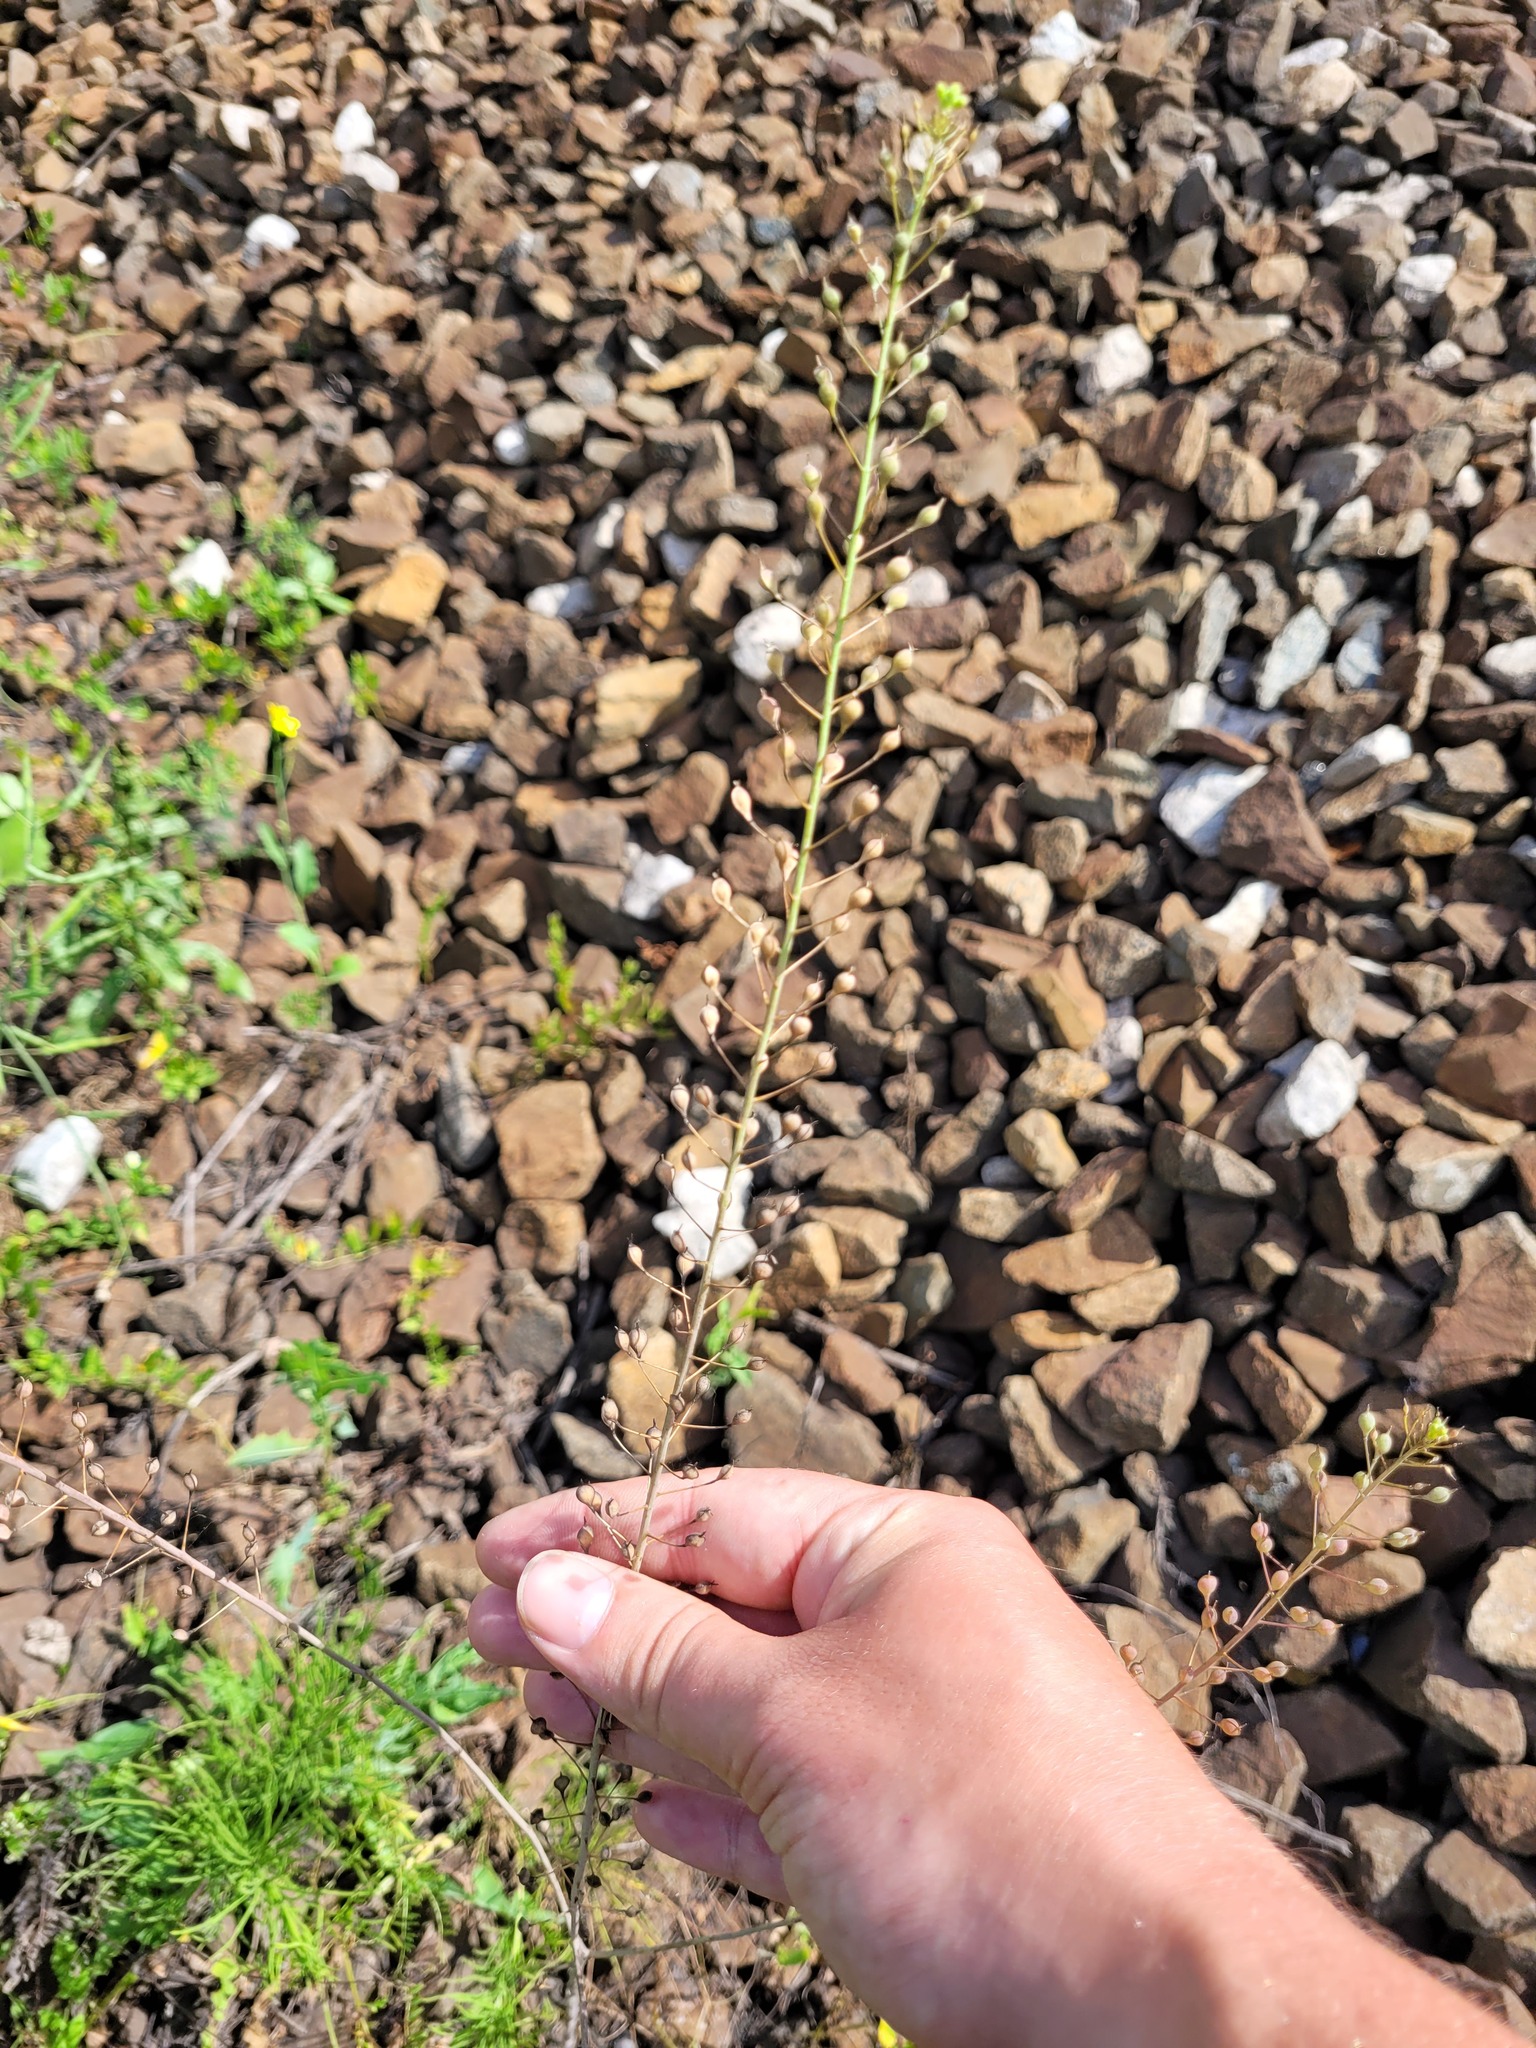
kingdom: Plantae
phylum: Tracheophyta
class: Magnoliopsida
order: Brassicales
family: Brassicaceae
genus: Camelina
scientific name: Camelina microcarpa
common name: Lesser gold-of-pleasure
